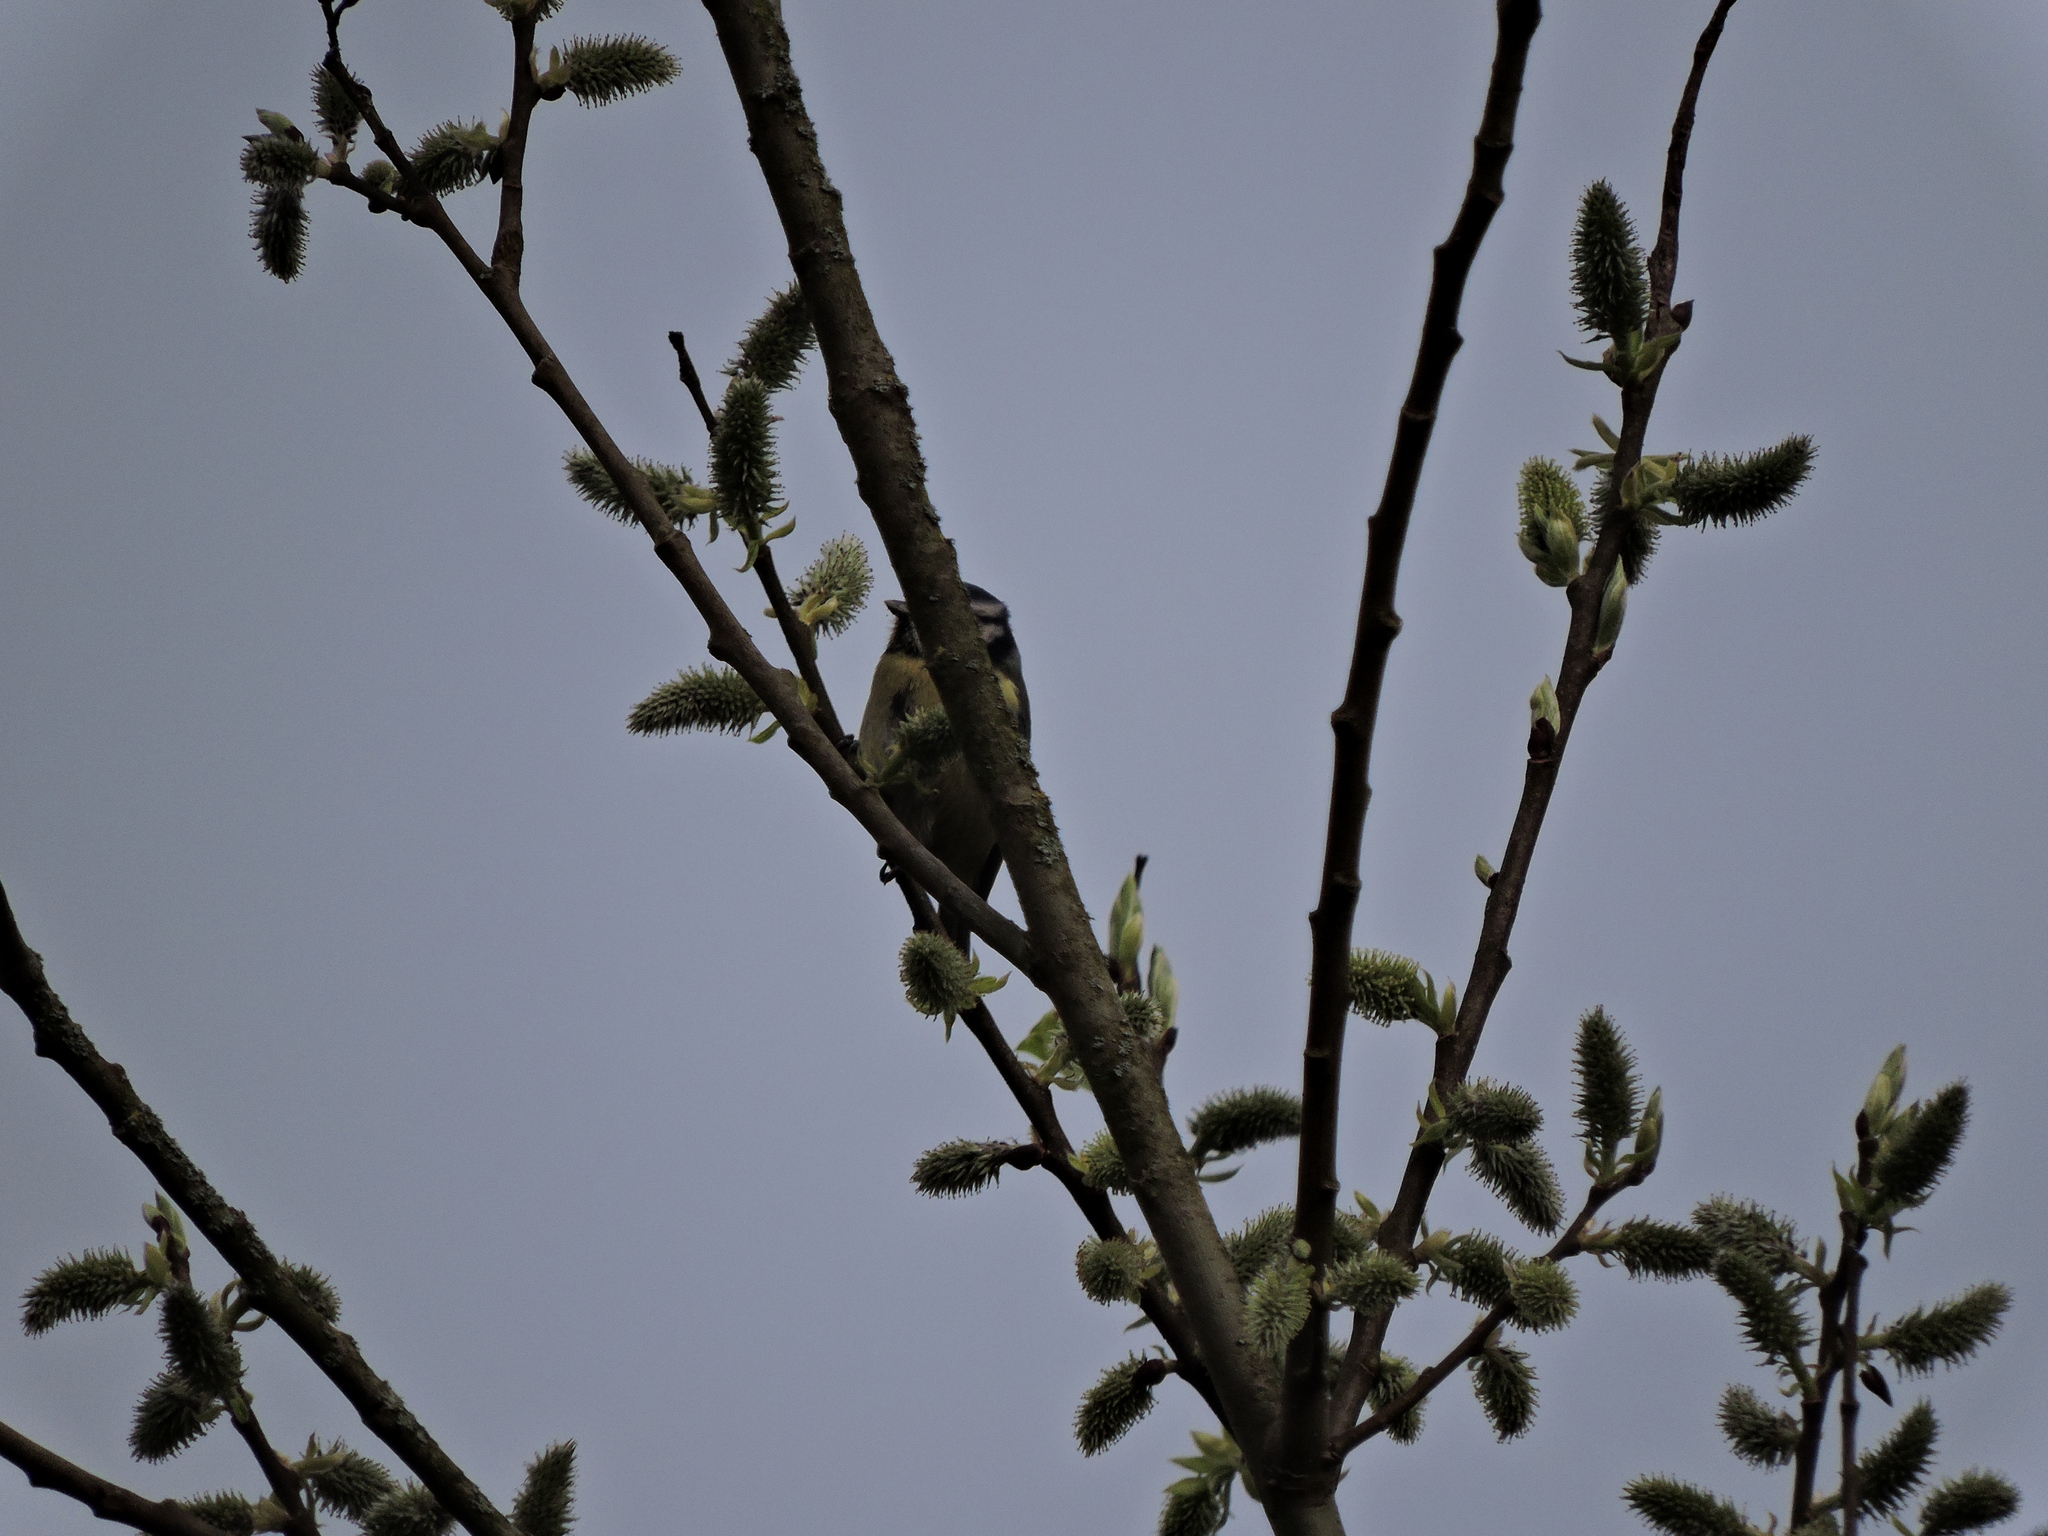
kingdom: Animalia
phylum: Chordata
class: Aves
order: Passeriformes
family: Paridae
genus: Cyanistes
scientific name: Cyanistes caeruleus
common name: Eurasian blue tit
